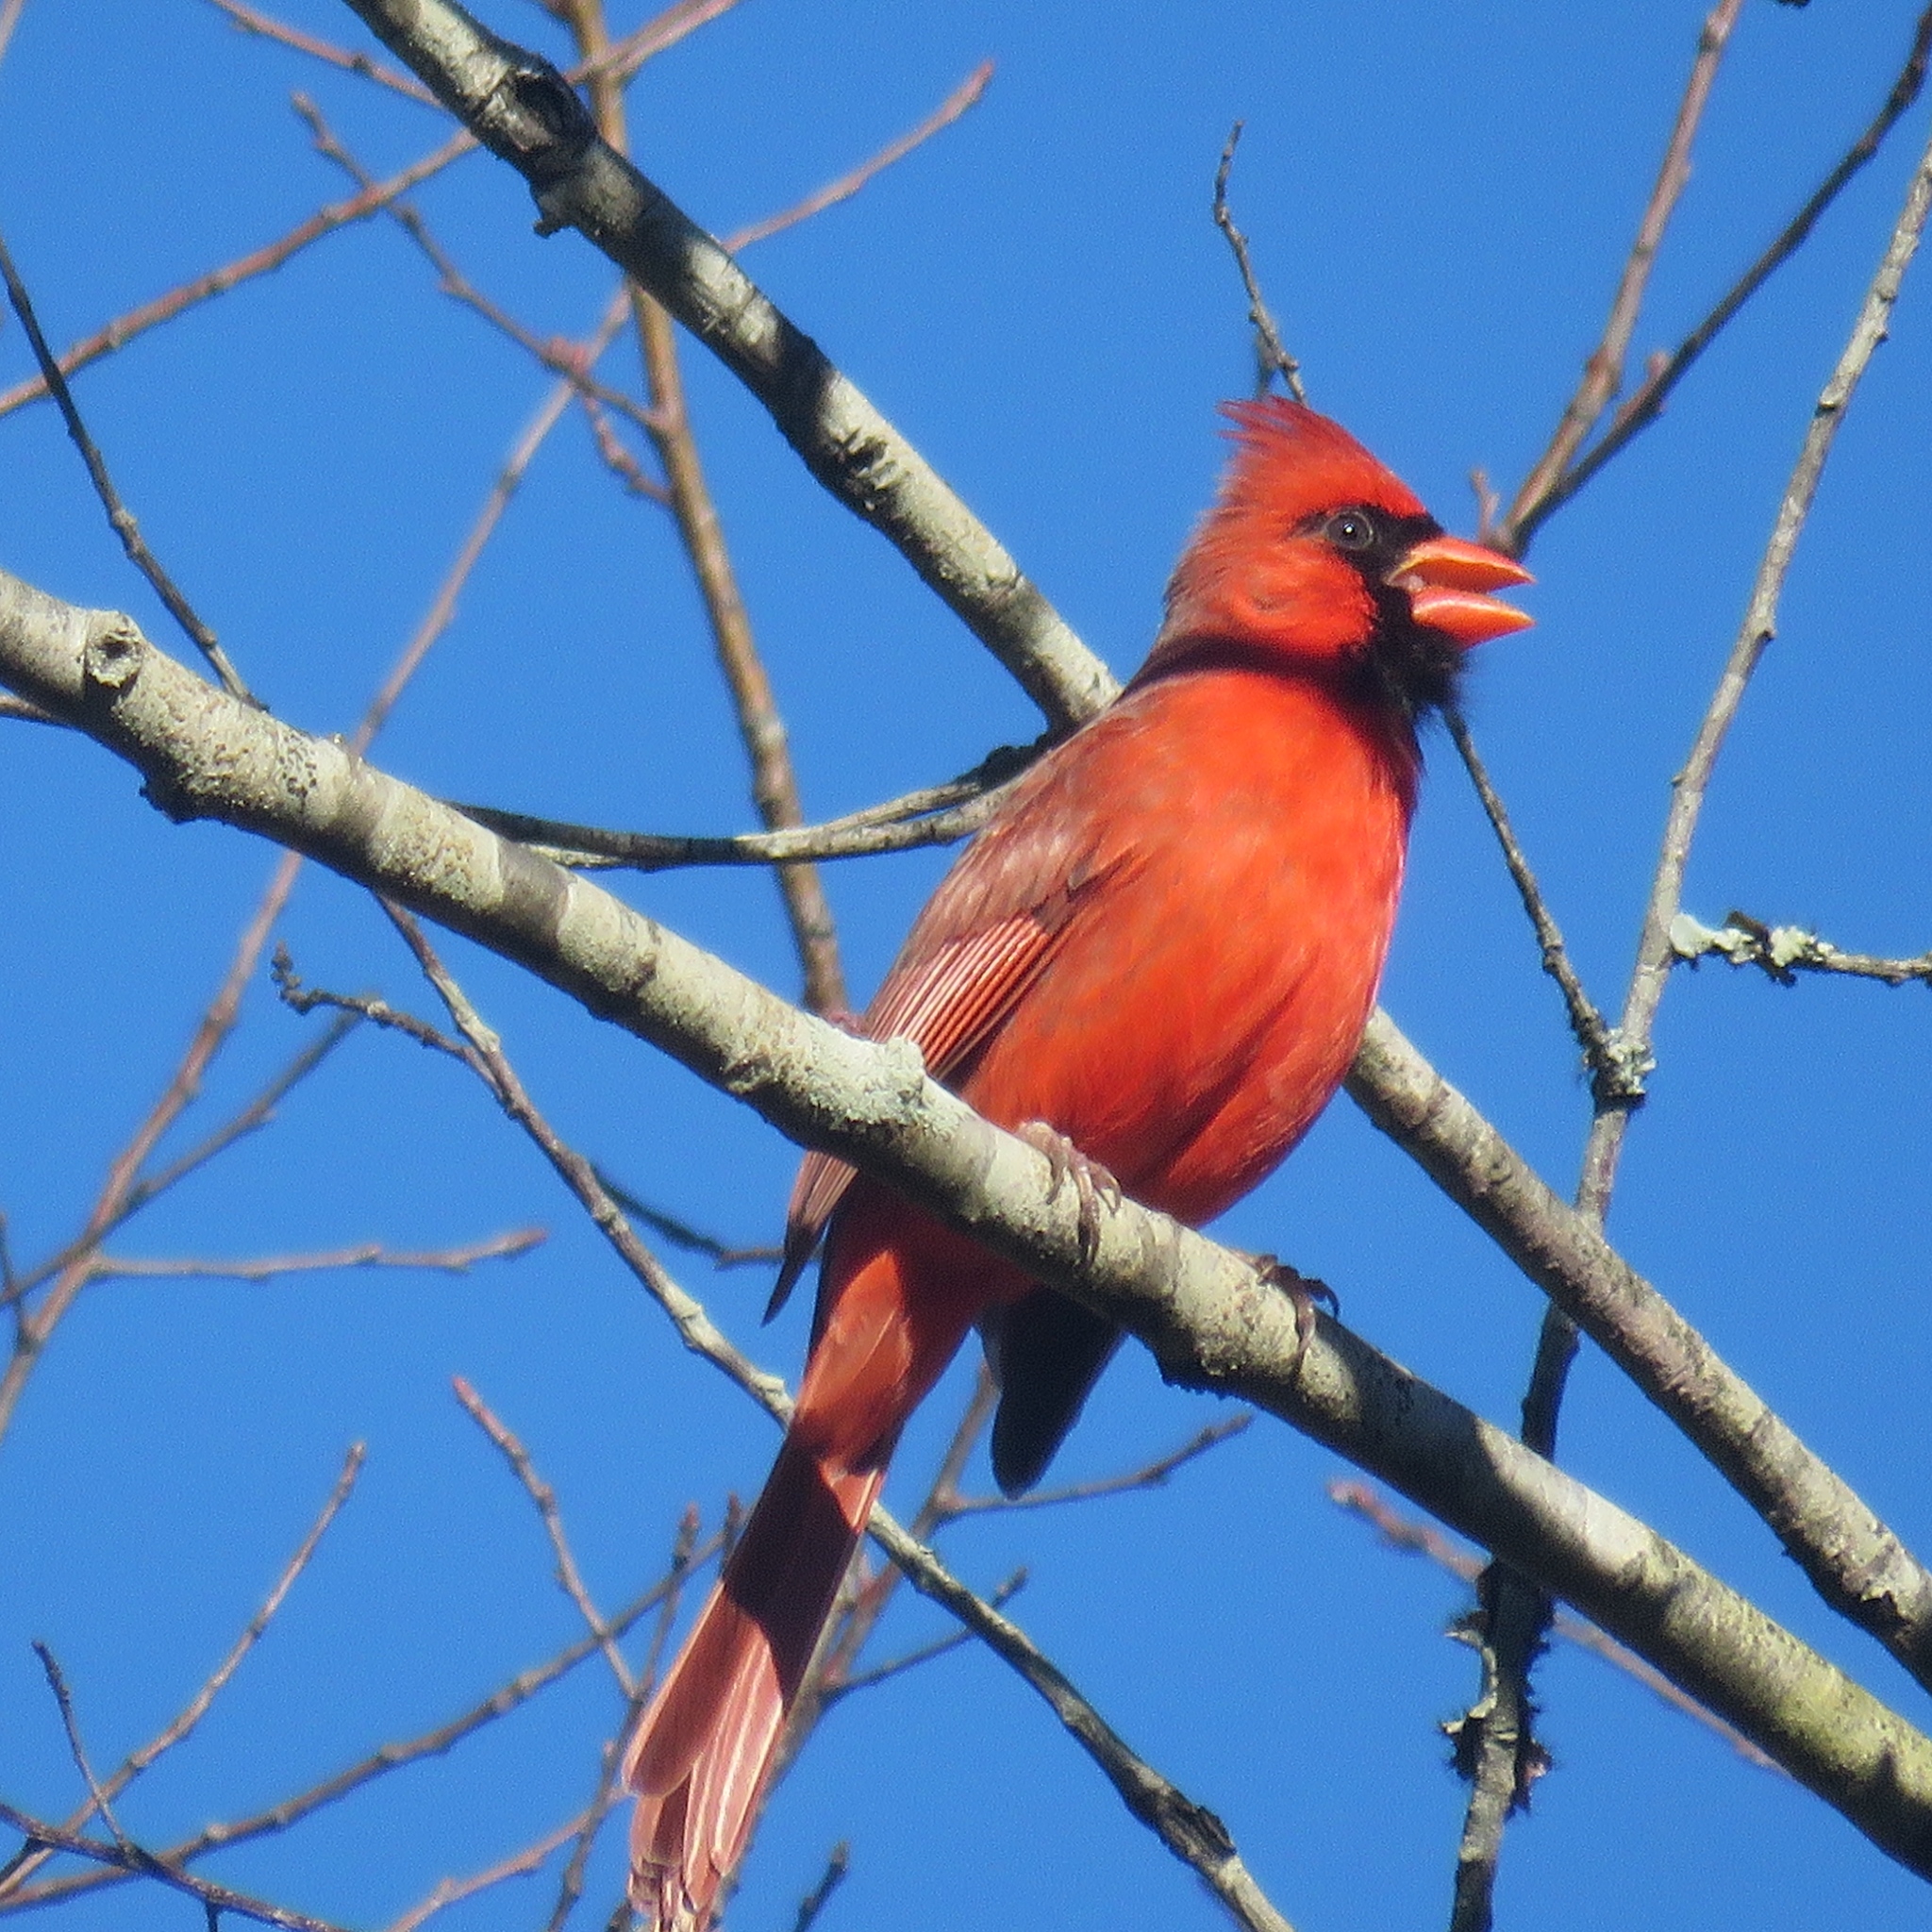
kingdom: Animalia
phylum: Chordata
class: Aves
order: Passeriformes
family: Cardinalidae
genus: Cardinalis
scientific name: Cardinalis cardinalis
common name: Northern cardinal
